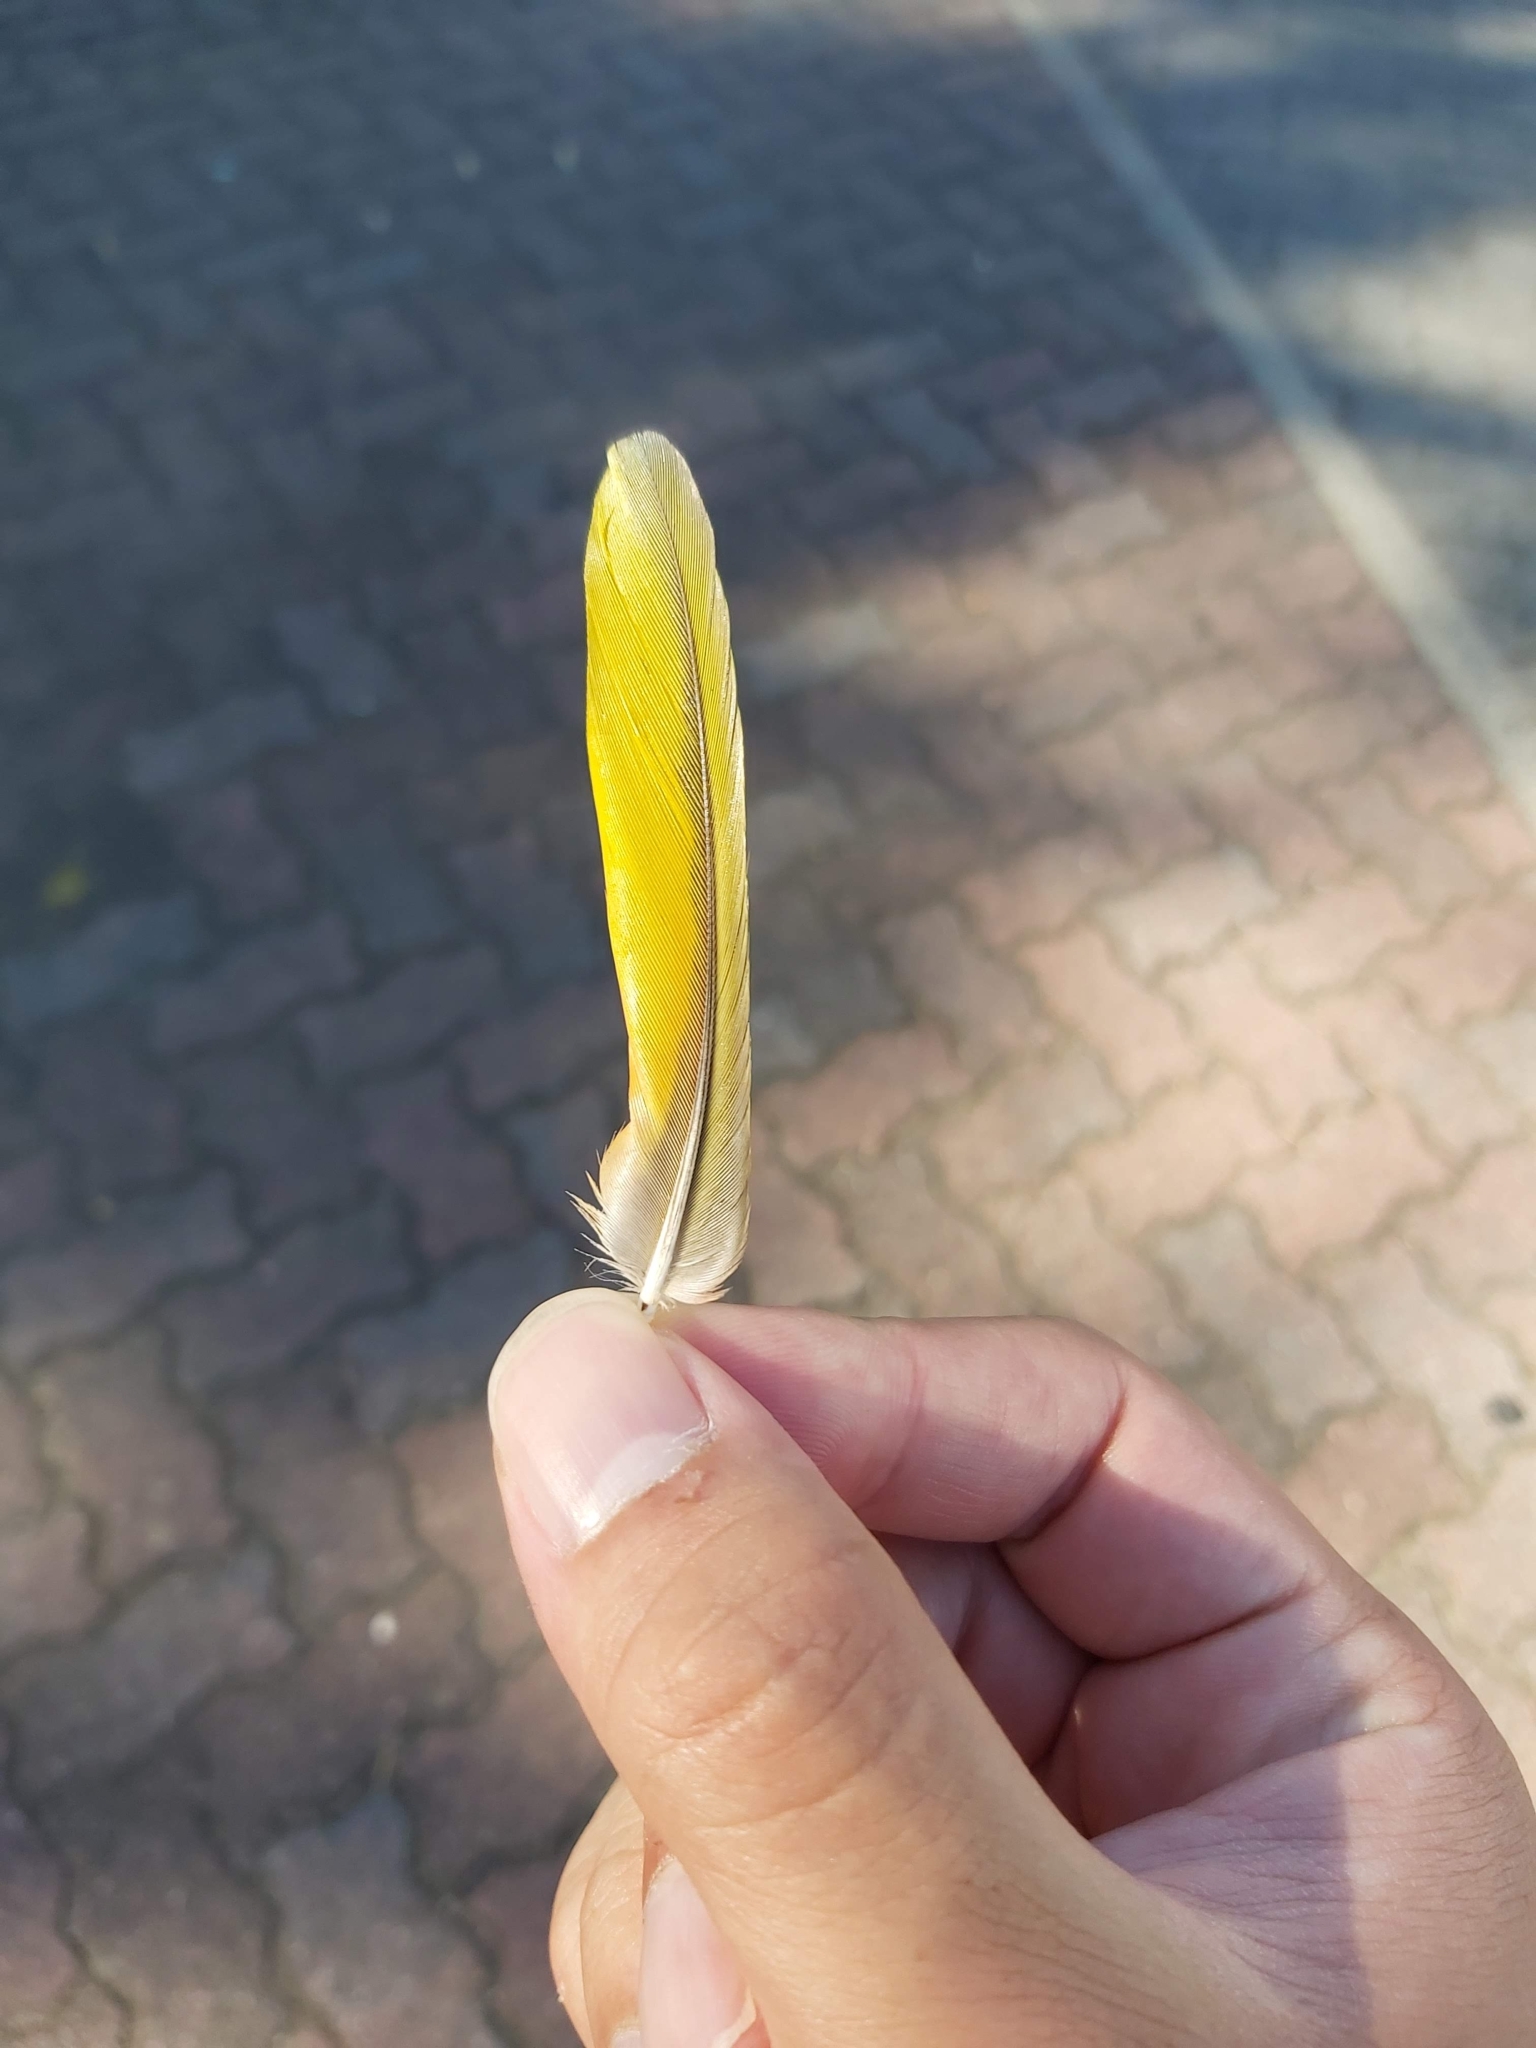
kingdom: Animalia
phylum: Chordata
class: Aves
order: Psittaciformes
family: Psittacidae
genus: Trichoglossus
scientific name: Trichoglossus haematodus
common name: Coconut lorikeet
